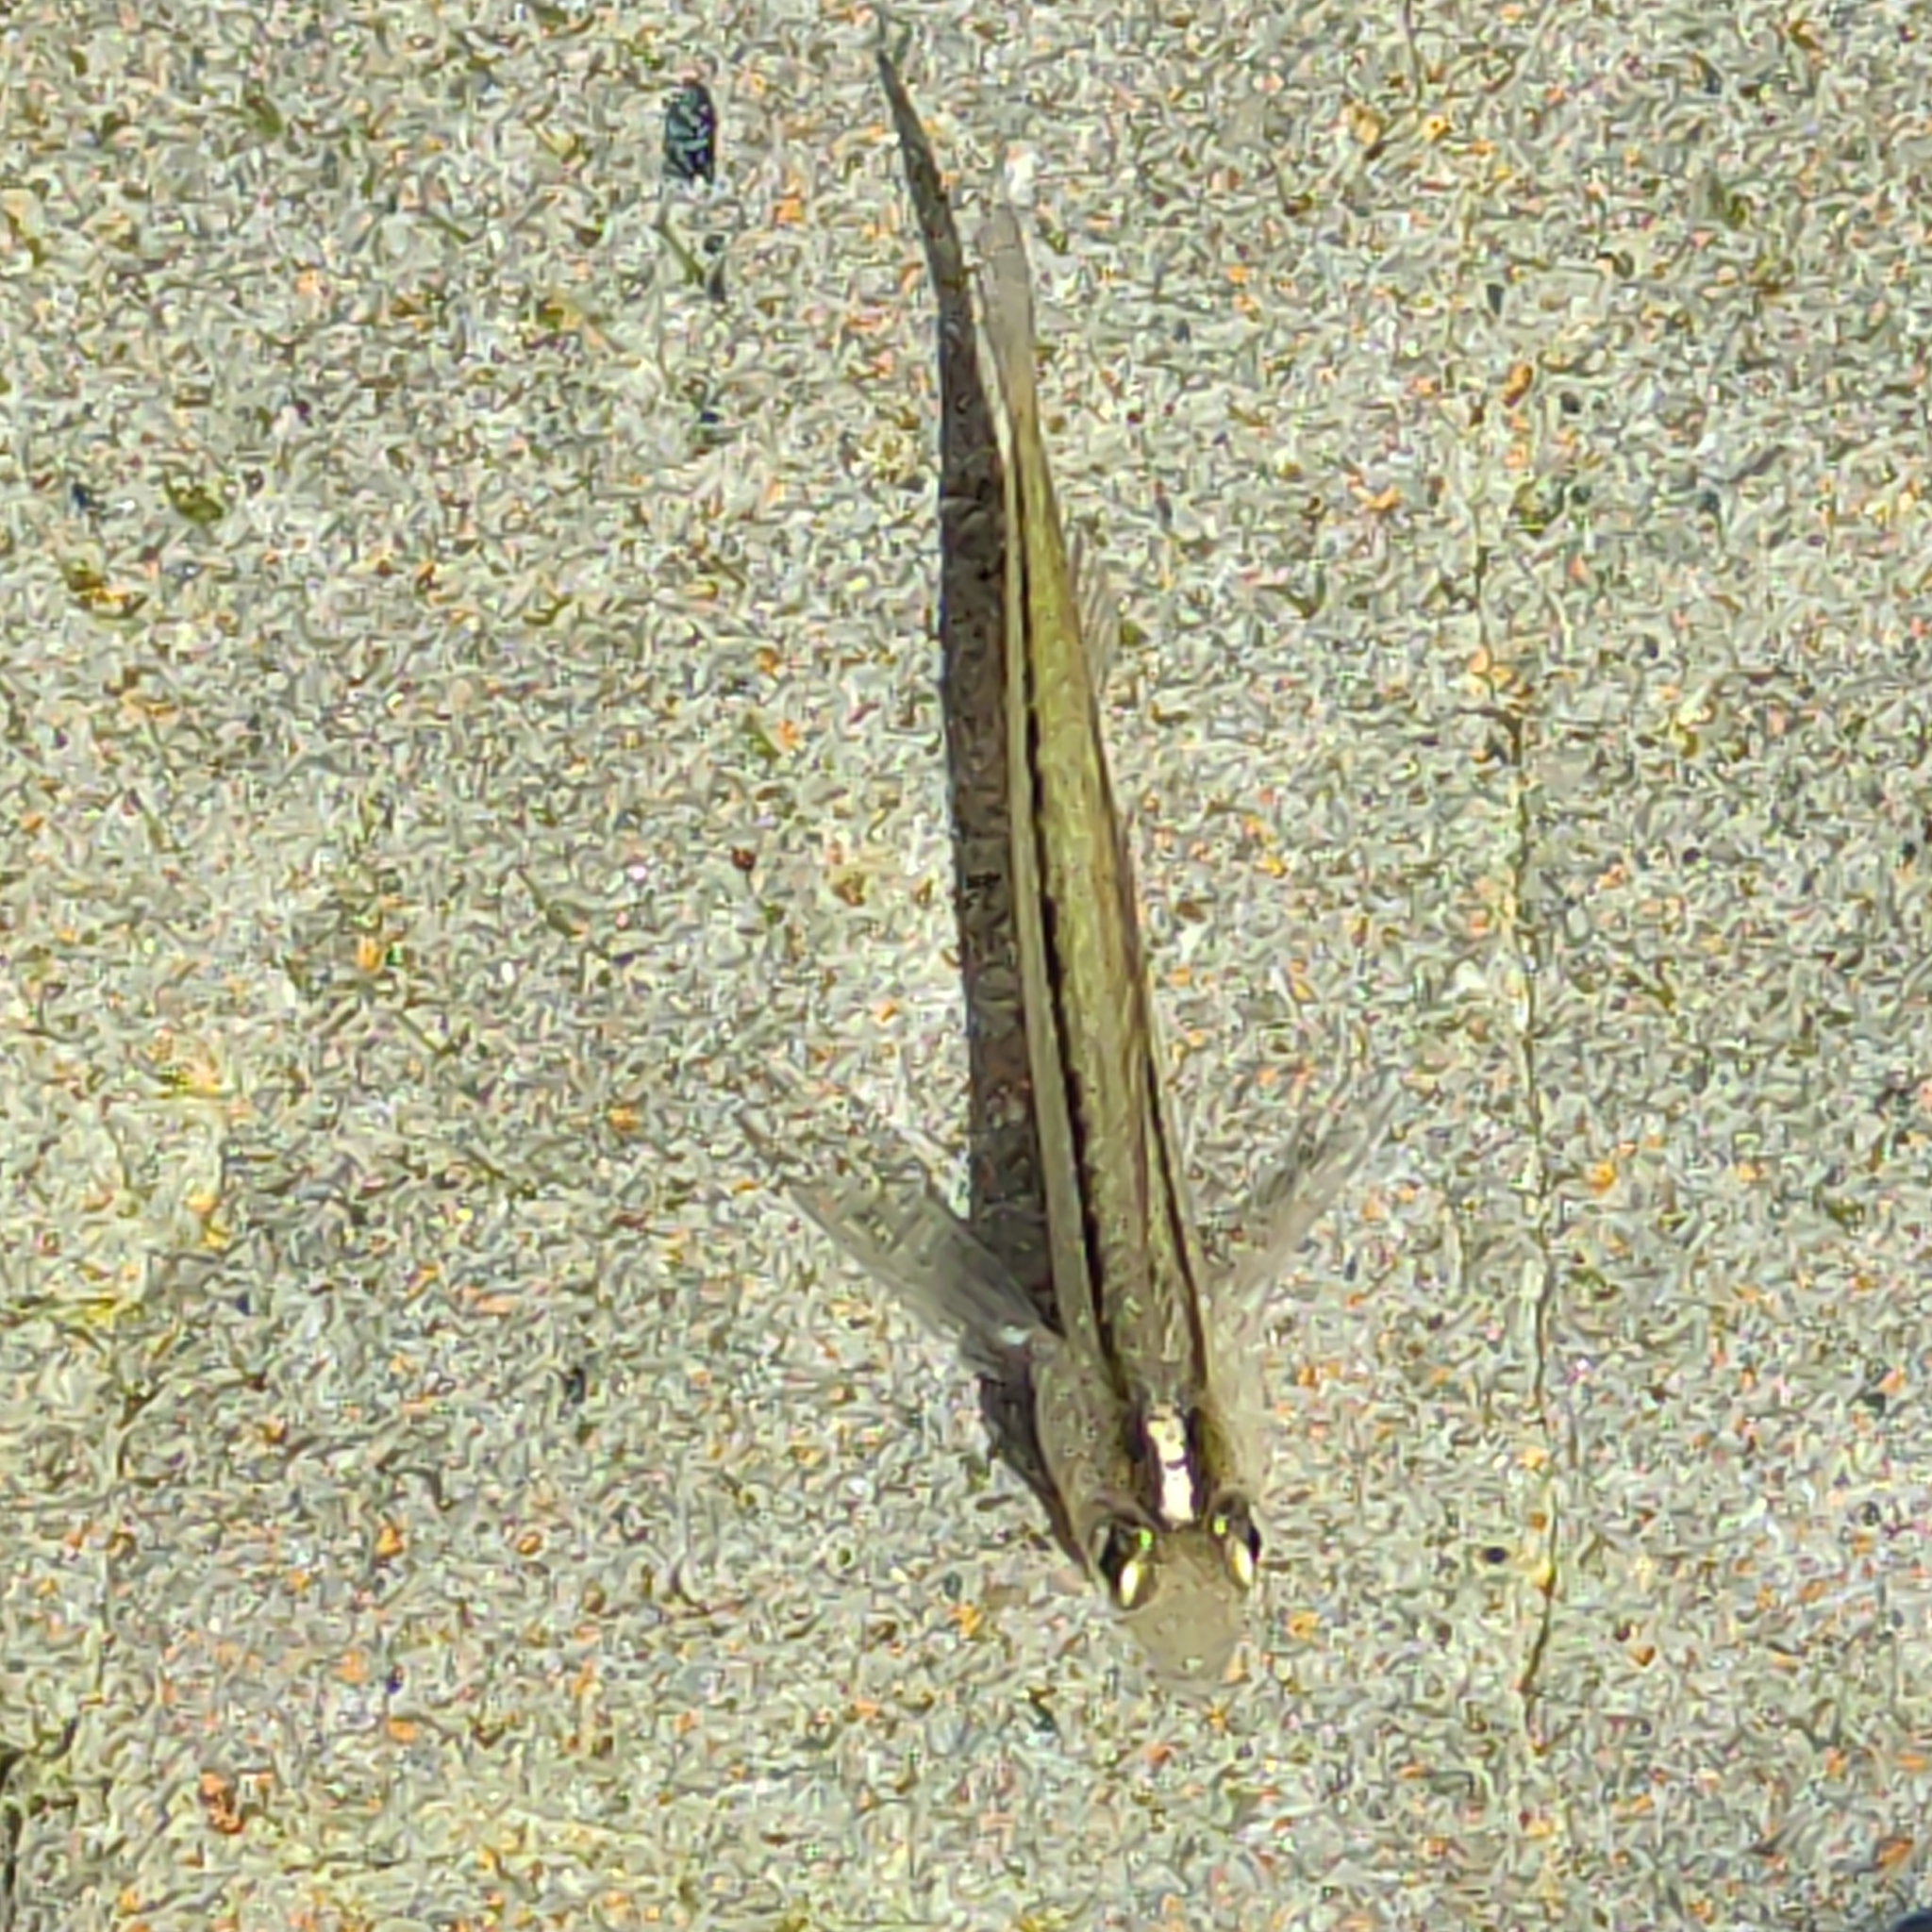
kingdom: Animalia
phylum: Chordata
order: Perciformes
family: Tripterygiidae
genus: Forsterygion
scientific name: Forsterygion lapillum
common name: Common triplefin
